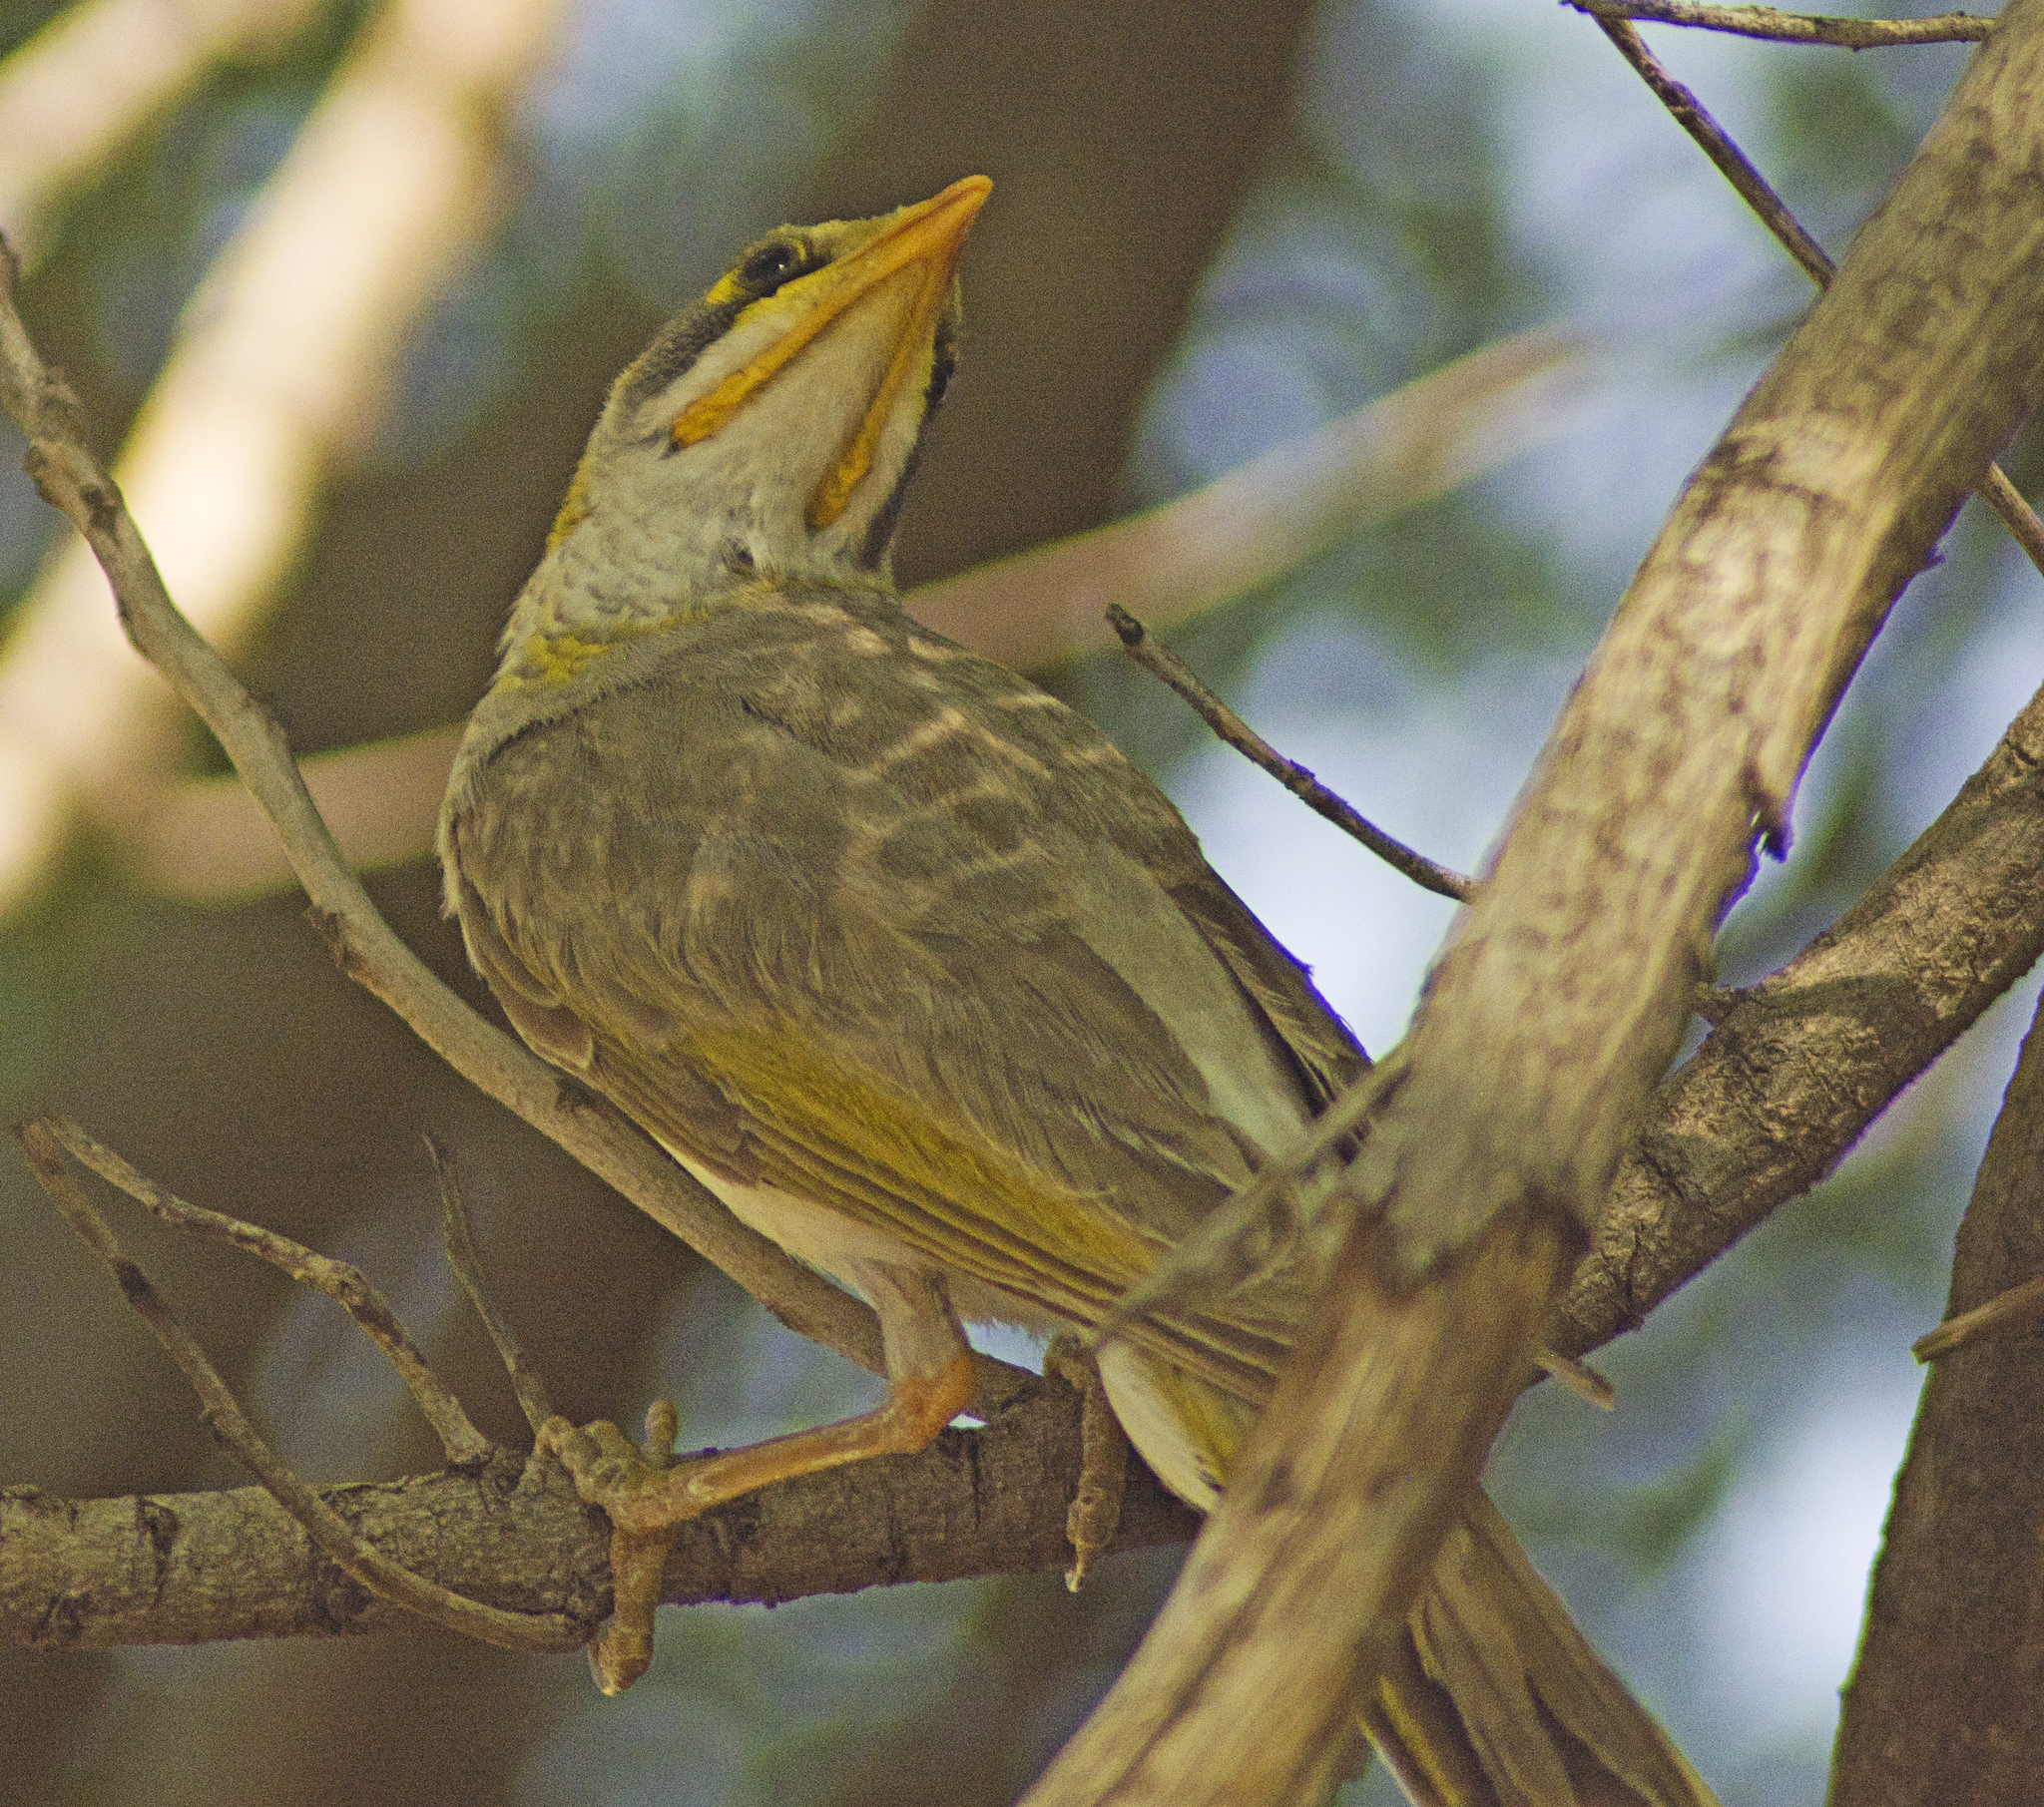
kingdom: Animalia
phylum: Chordata
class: Aves
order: Passeriformes
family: Meliphagidae
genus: Manorina
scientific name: Manorina flavigula
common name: Yellow-throated miner
